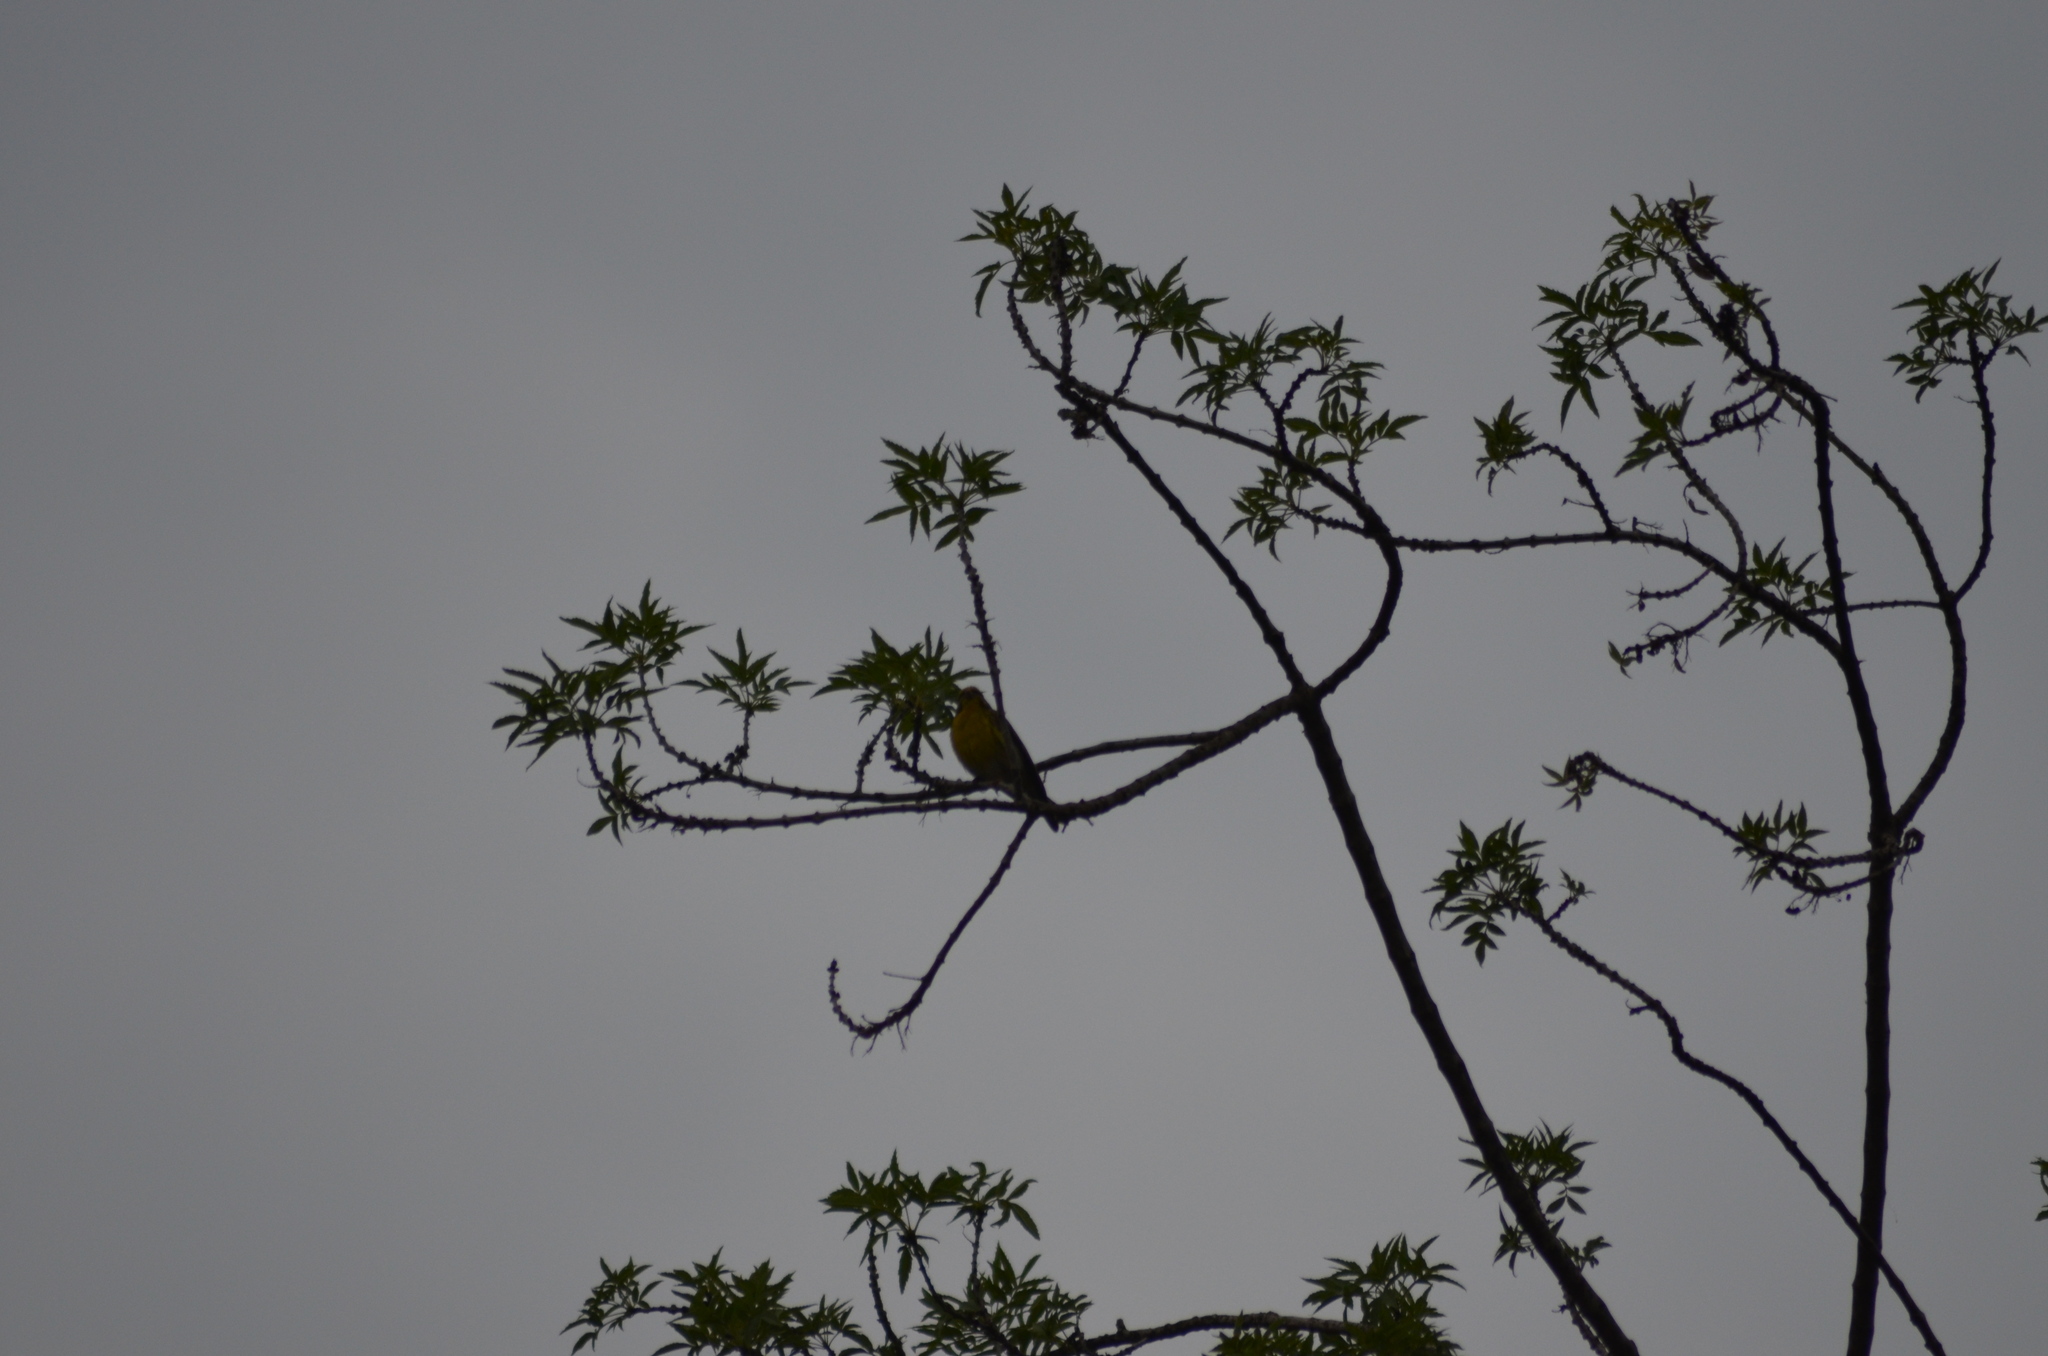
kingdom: Animalia
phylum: Chordata
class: Aves
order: Passeriformes
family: Fringillidae
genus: Serinus
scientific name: Serinus serinus
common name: European serin
